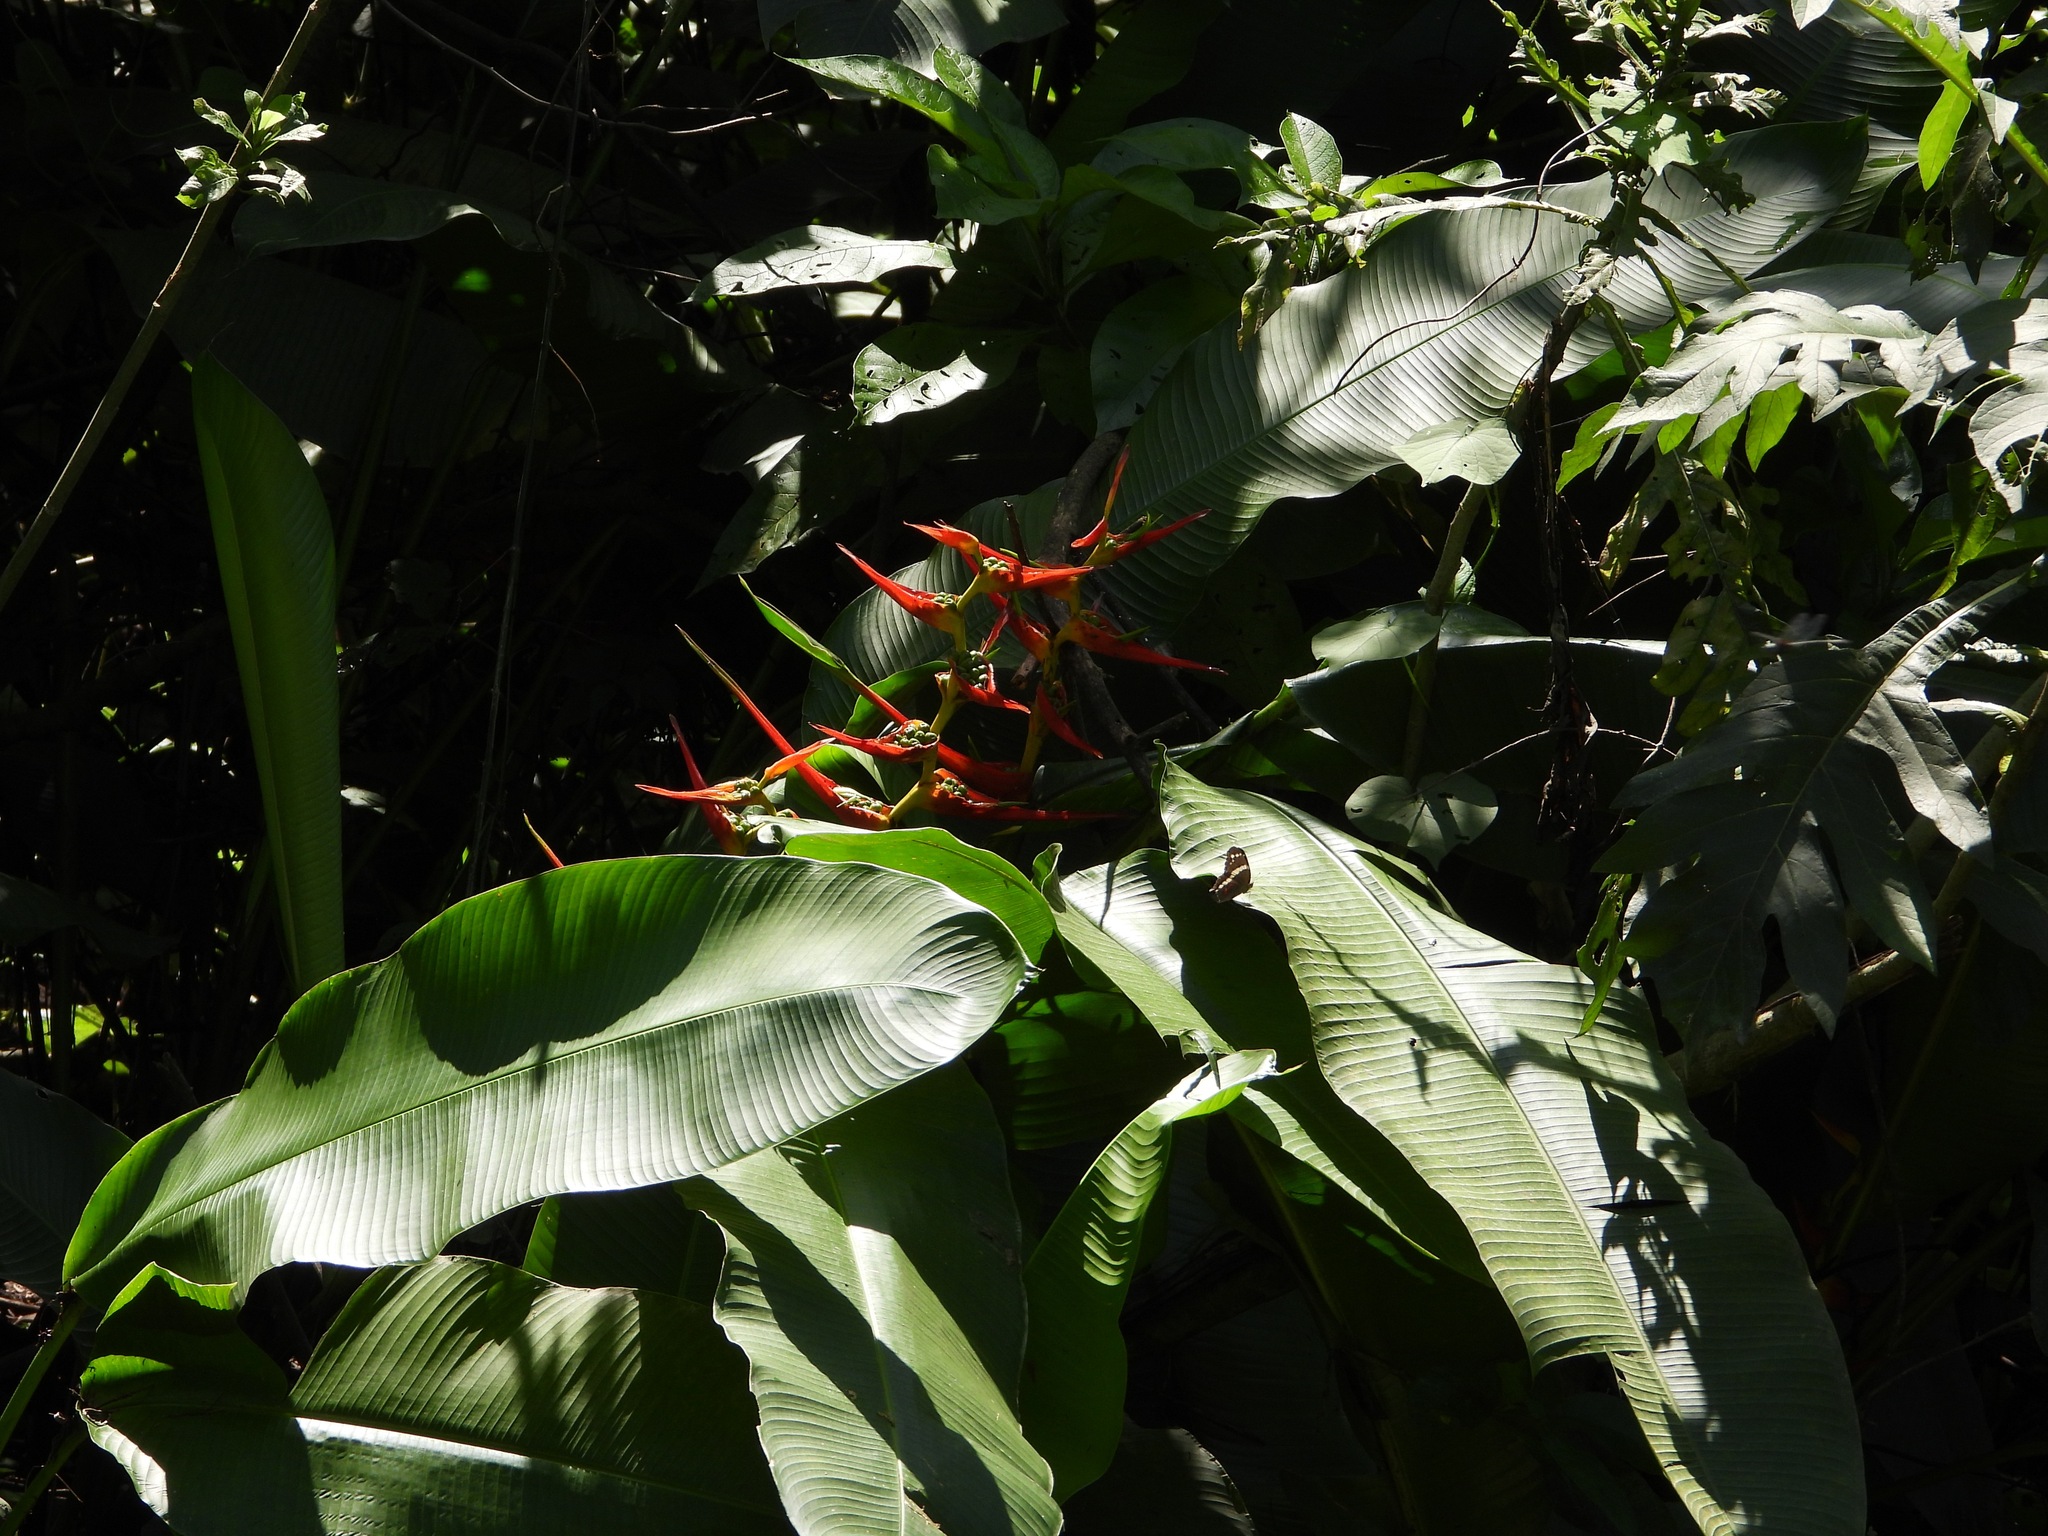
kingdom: Plantae
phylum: Tracheophyta
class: Liliopsida
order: Zingiberales
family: Heliconiaceae
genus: Heliconia
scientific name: Heliconia latispatha
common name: Expanded lobsterclaw
